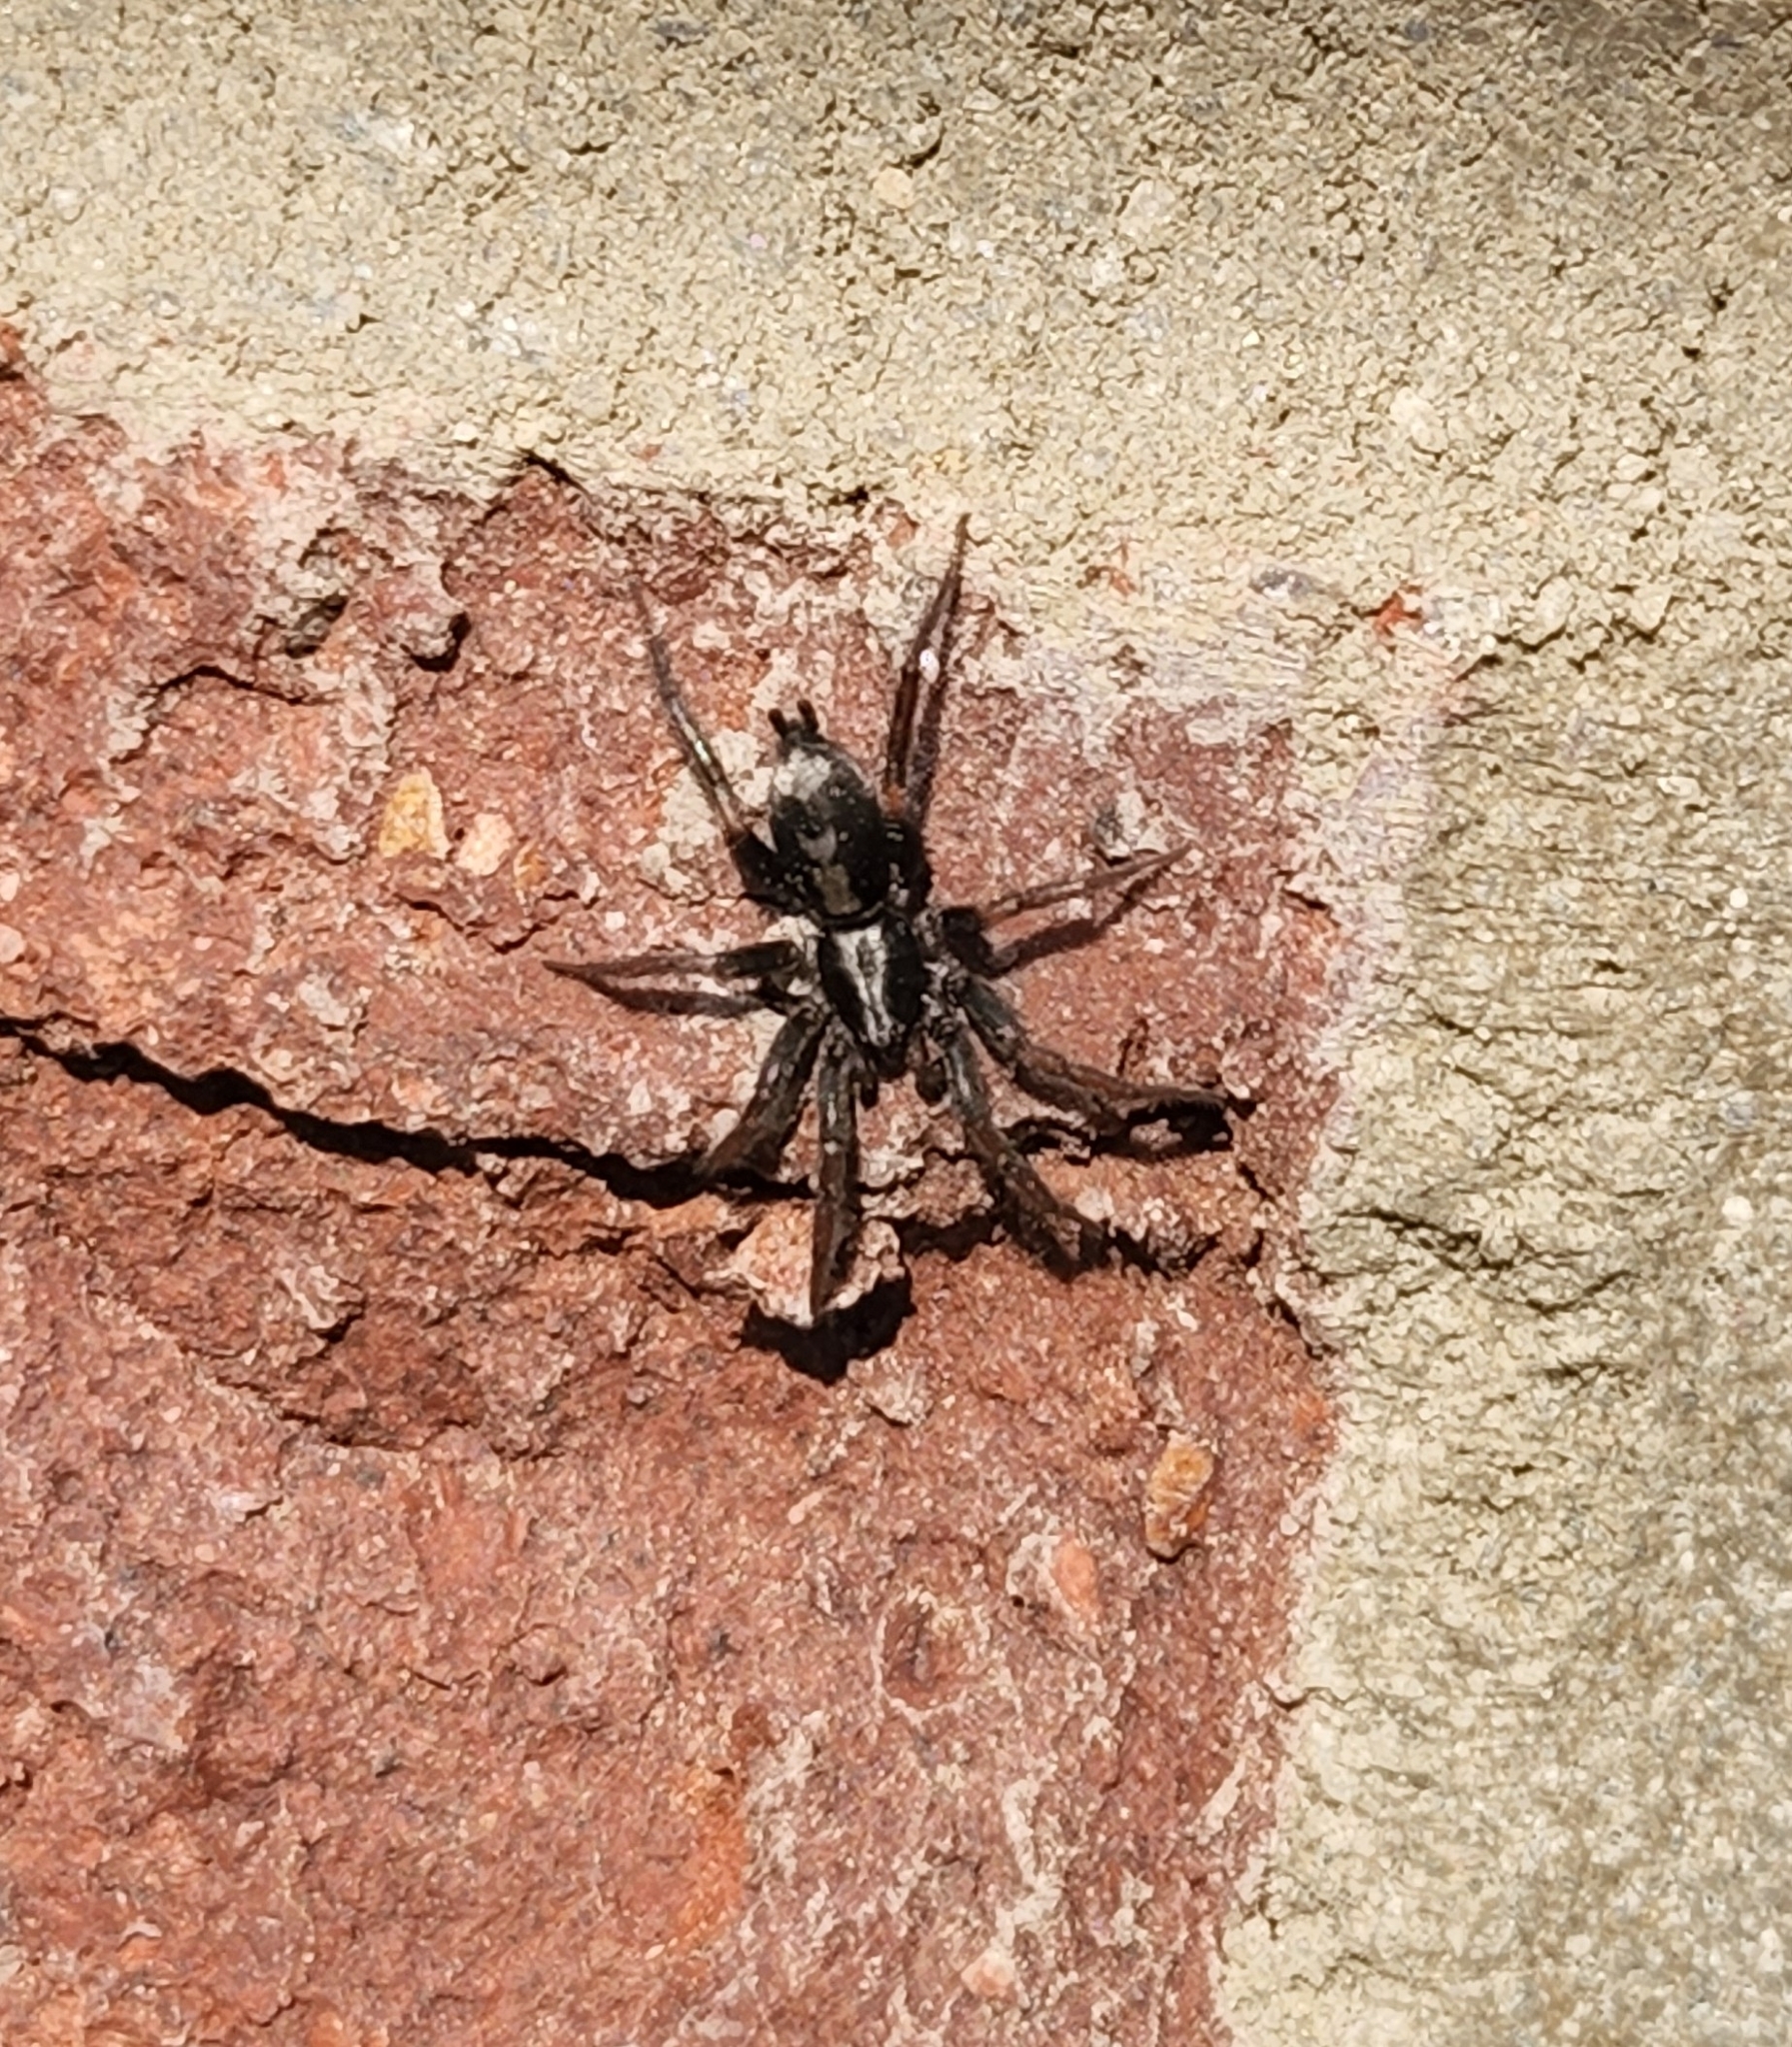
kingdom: Animalia
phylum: Arthropoda
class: Arachnida
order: Araneae
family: Gnaphosidae
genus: Herpyllus
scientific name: Herpyllus ecclesiasticus
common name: Eastern parson spider
